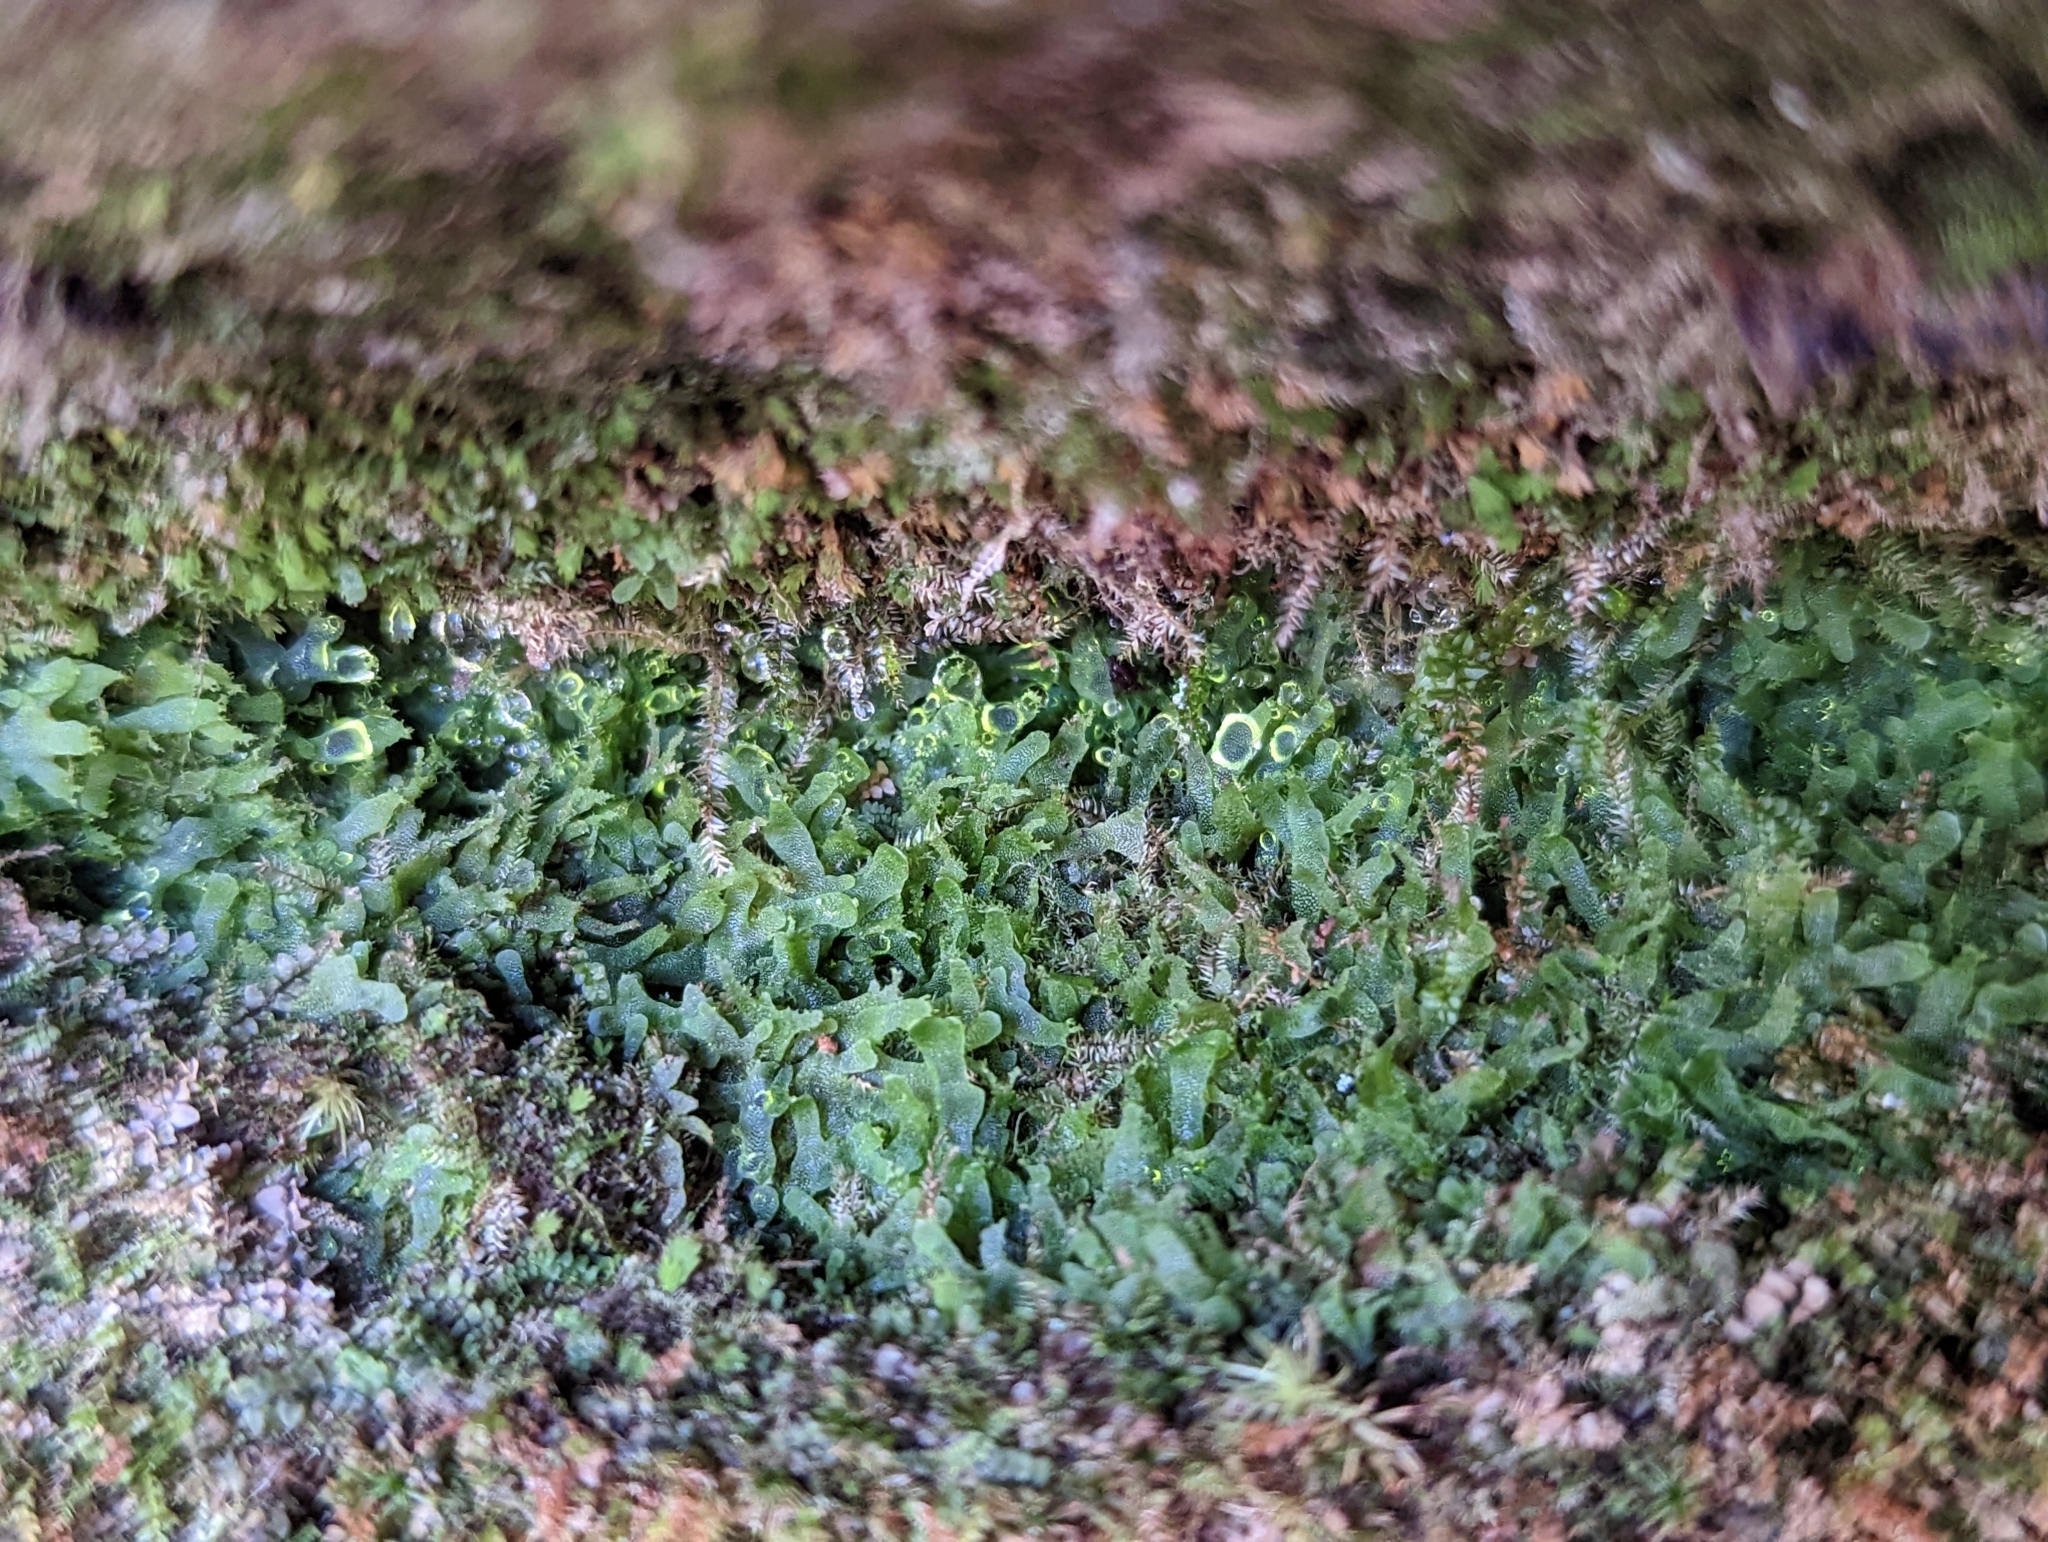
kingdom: Plantae
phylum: Tracheophyta
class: Polypodiopsida
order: Polypodiales
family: Pteridaceae
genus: Vittaria
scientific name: Vittaria appalachiana
